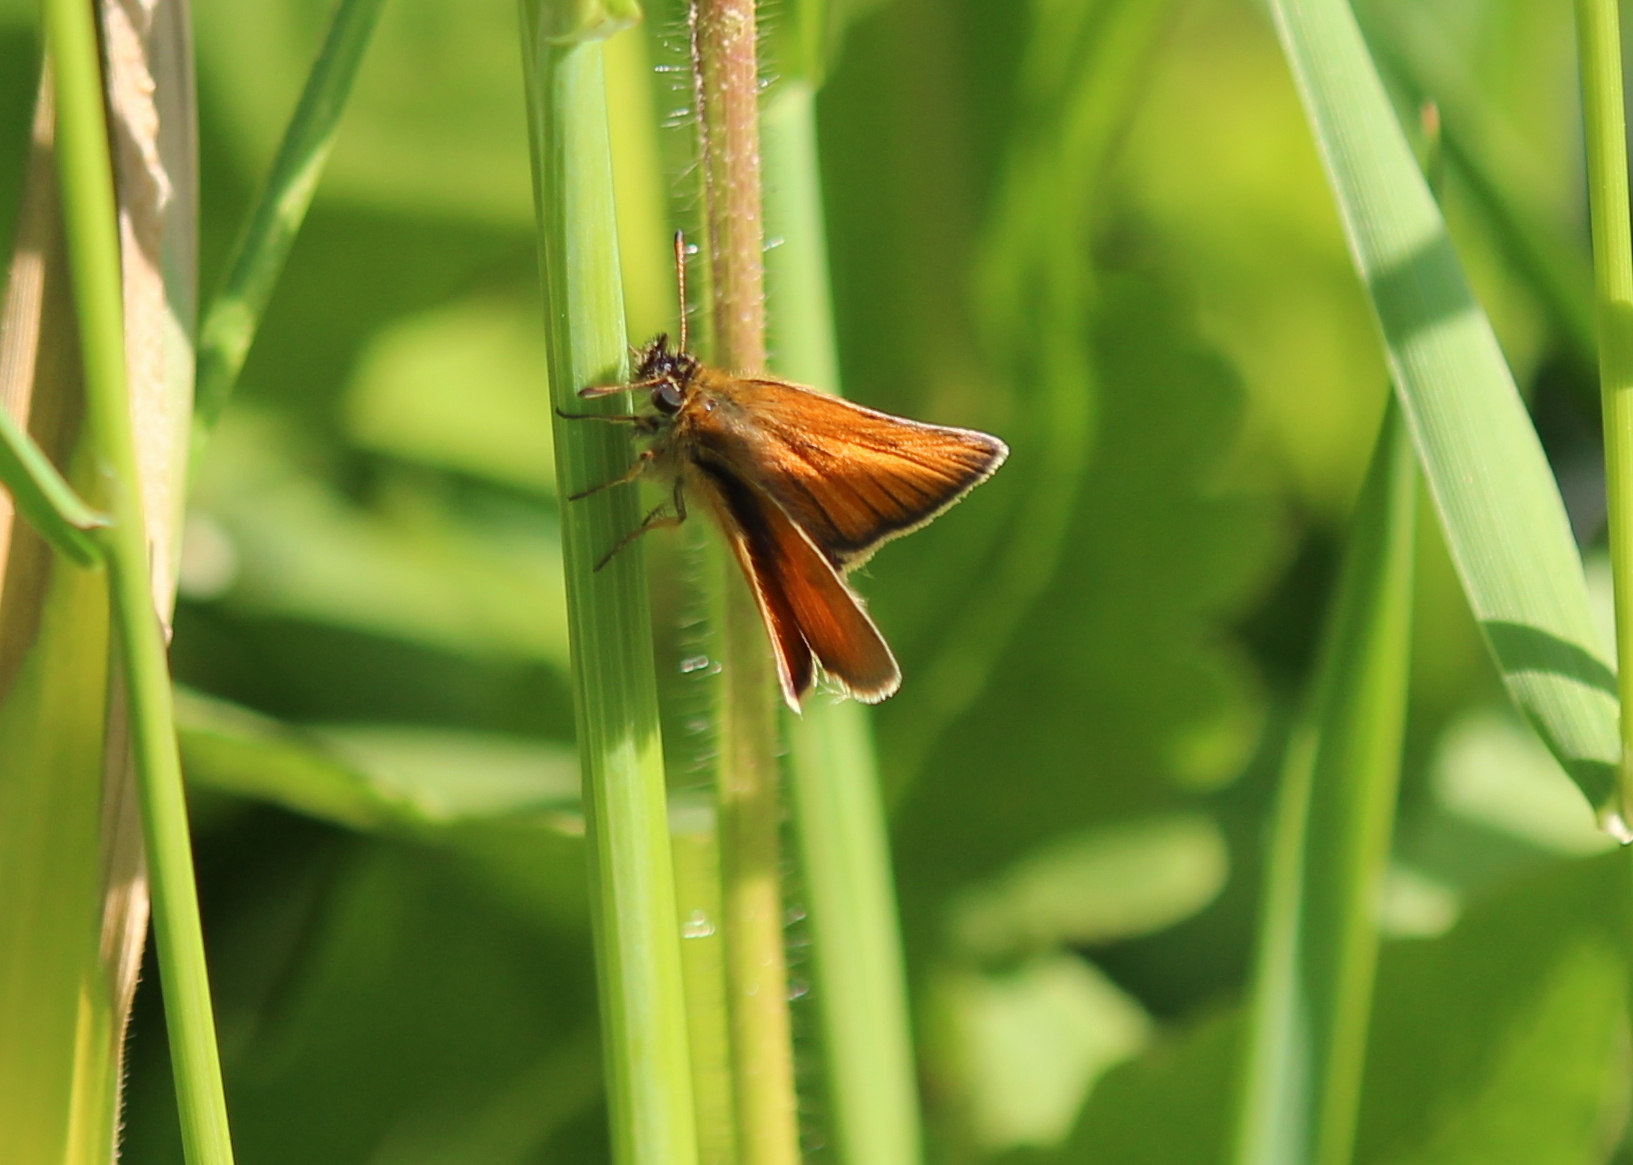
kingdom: Animalia
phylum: Arthropoda
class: Insecta
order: Lepidoptera
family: Hesperiidae
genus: Thymelicus
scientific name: Thymelicus lineola
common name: Essex skipper
